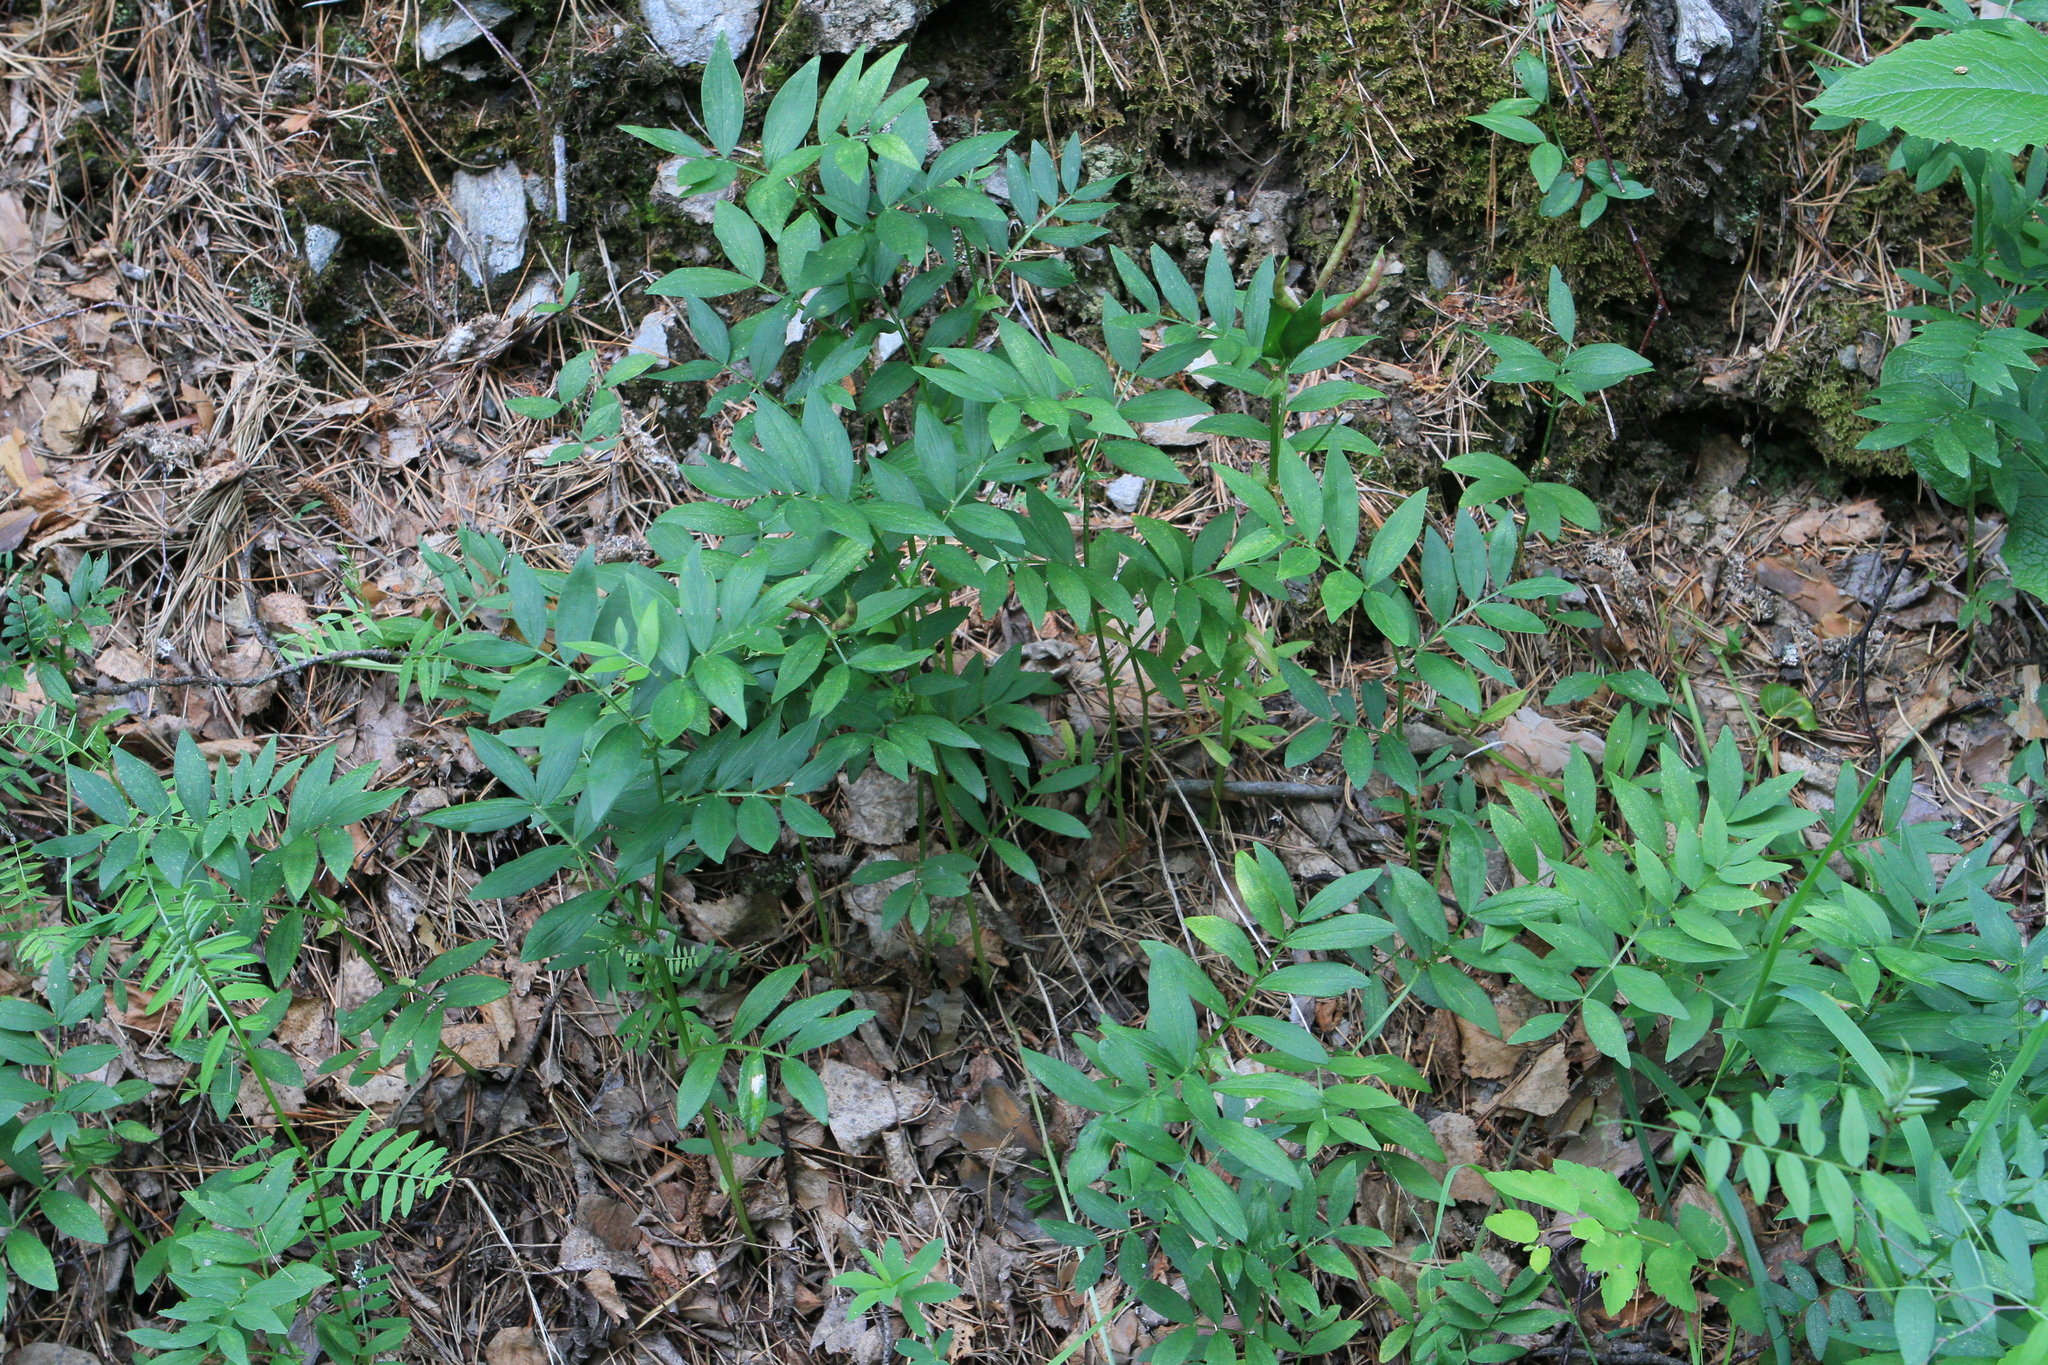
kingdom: Plantae
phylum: Tracheophyta
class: Magnoliopsida
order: Fabales
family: Fabaceae
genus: Lathyrus
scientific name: Lathyrus vernus
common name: Spring pea
